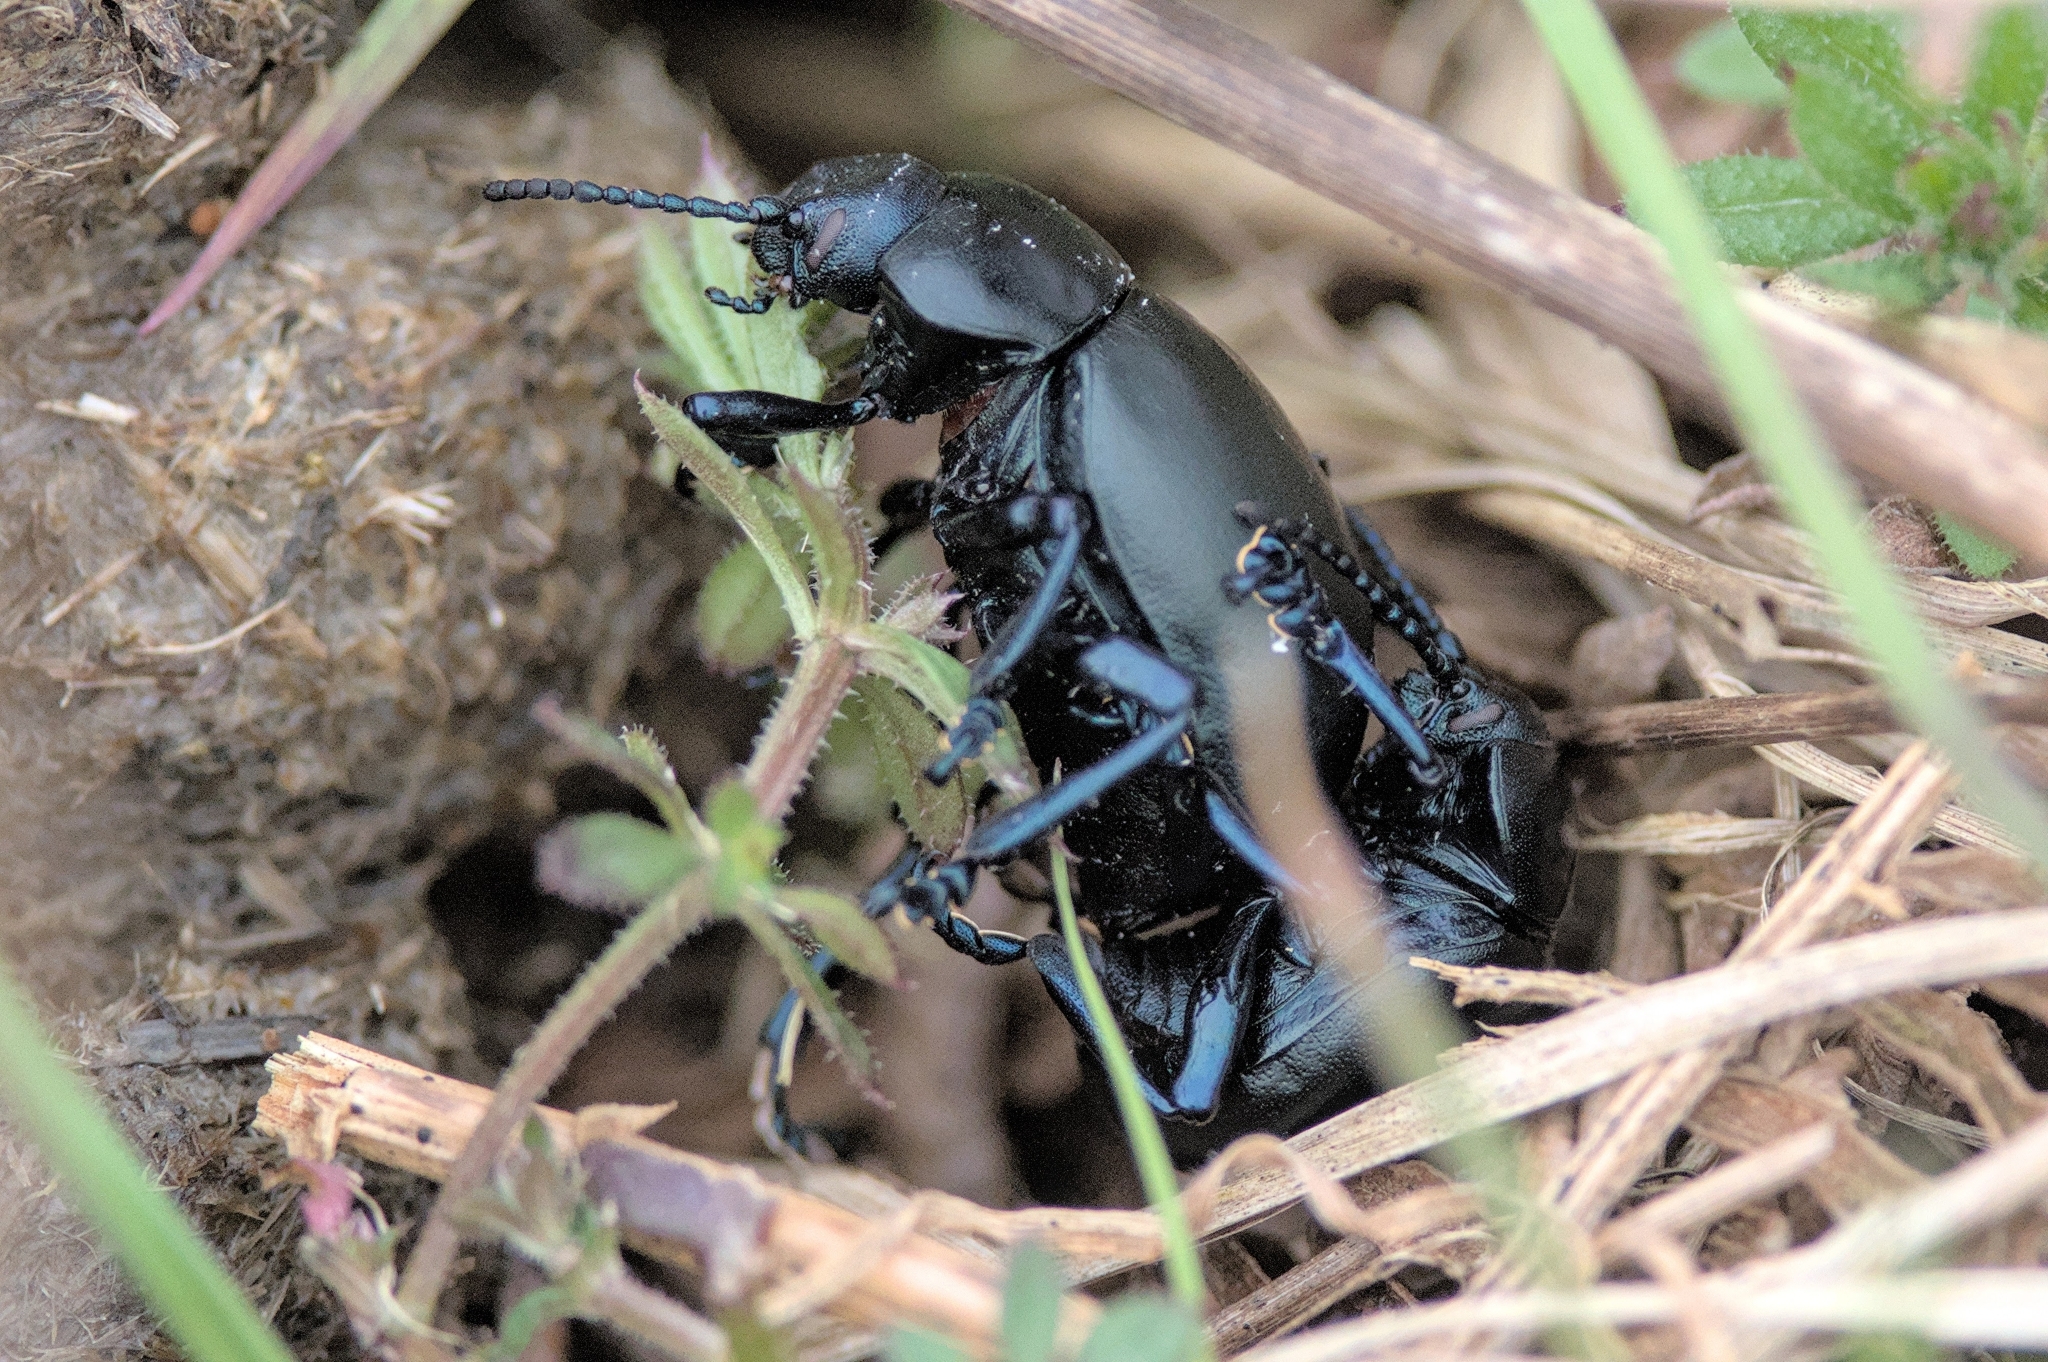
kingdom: Animalia
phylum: Arthropoda
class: Insecta
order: Coleoptera
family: Chrysomelidae
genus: Timarcha
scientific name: Timarcha tenebricosa
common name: Bloody-nosed beetle
